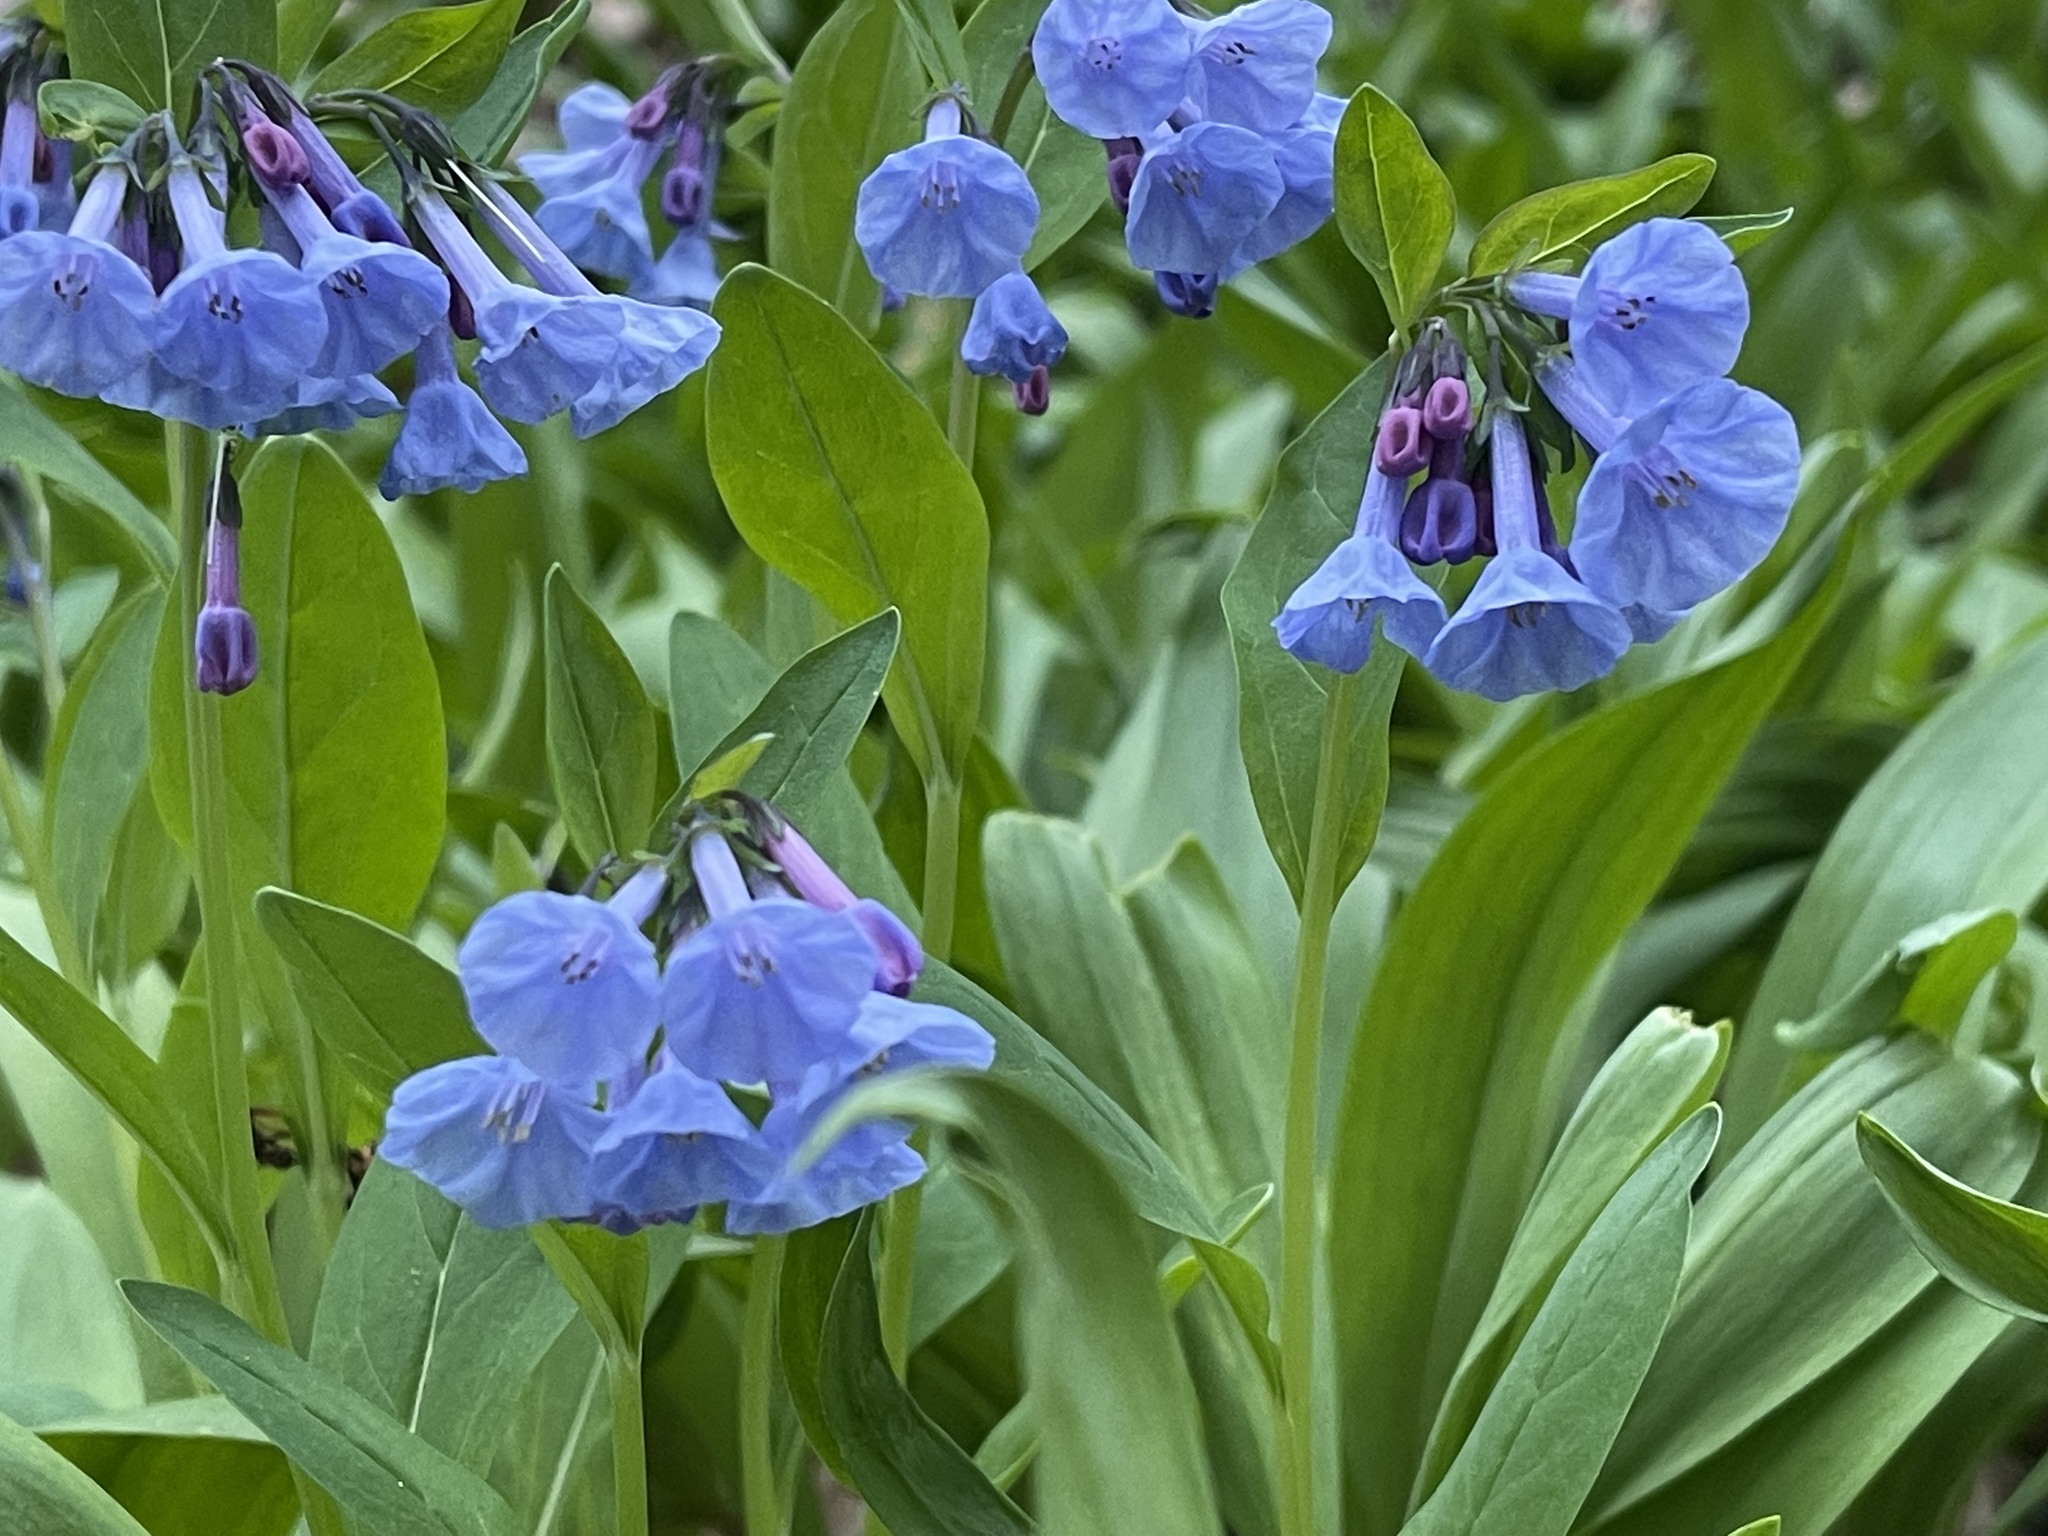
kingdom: Plantae
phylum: Tracheophyta
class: Magnoliopsida
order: Boraginales
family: Boraginaceae
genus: Mertensia
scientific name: Mertensia virginica
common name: Virginia bluebells
